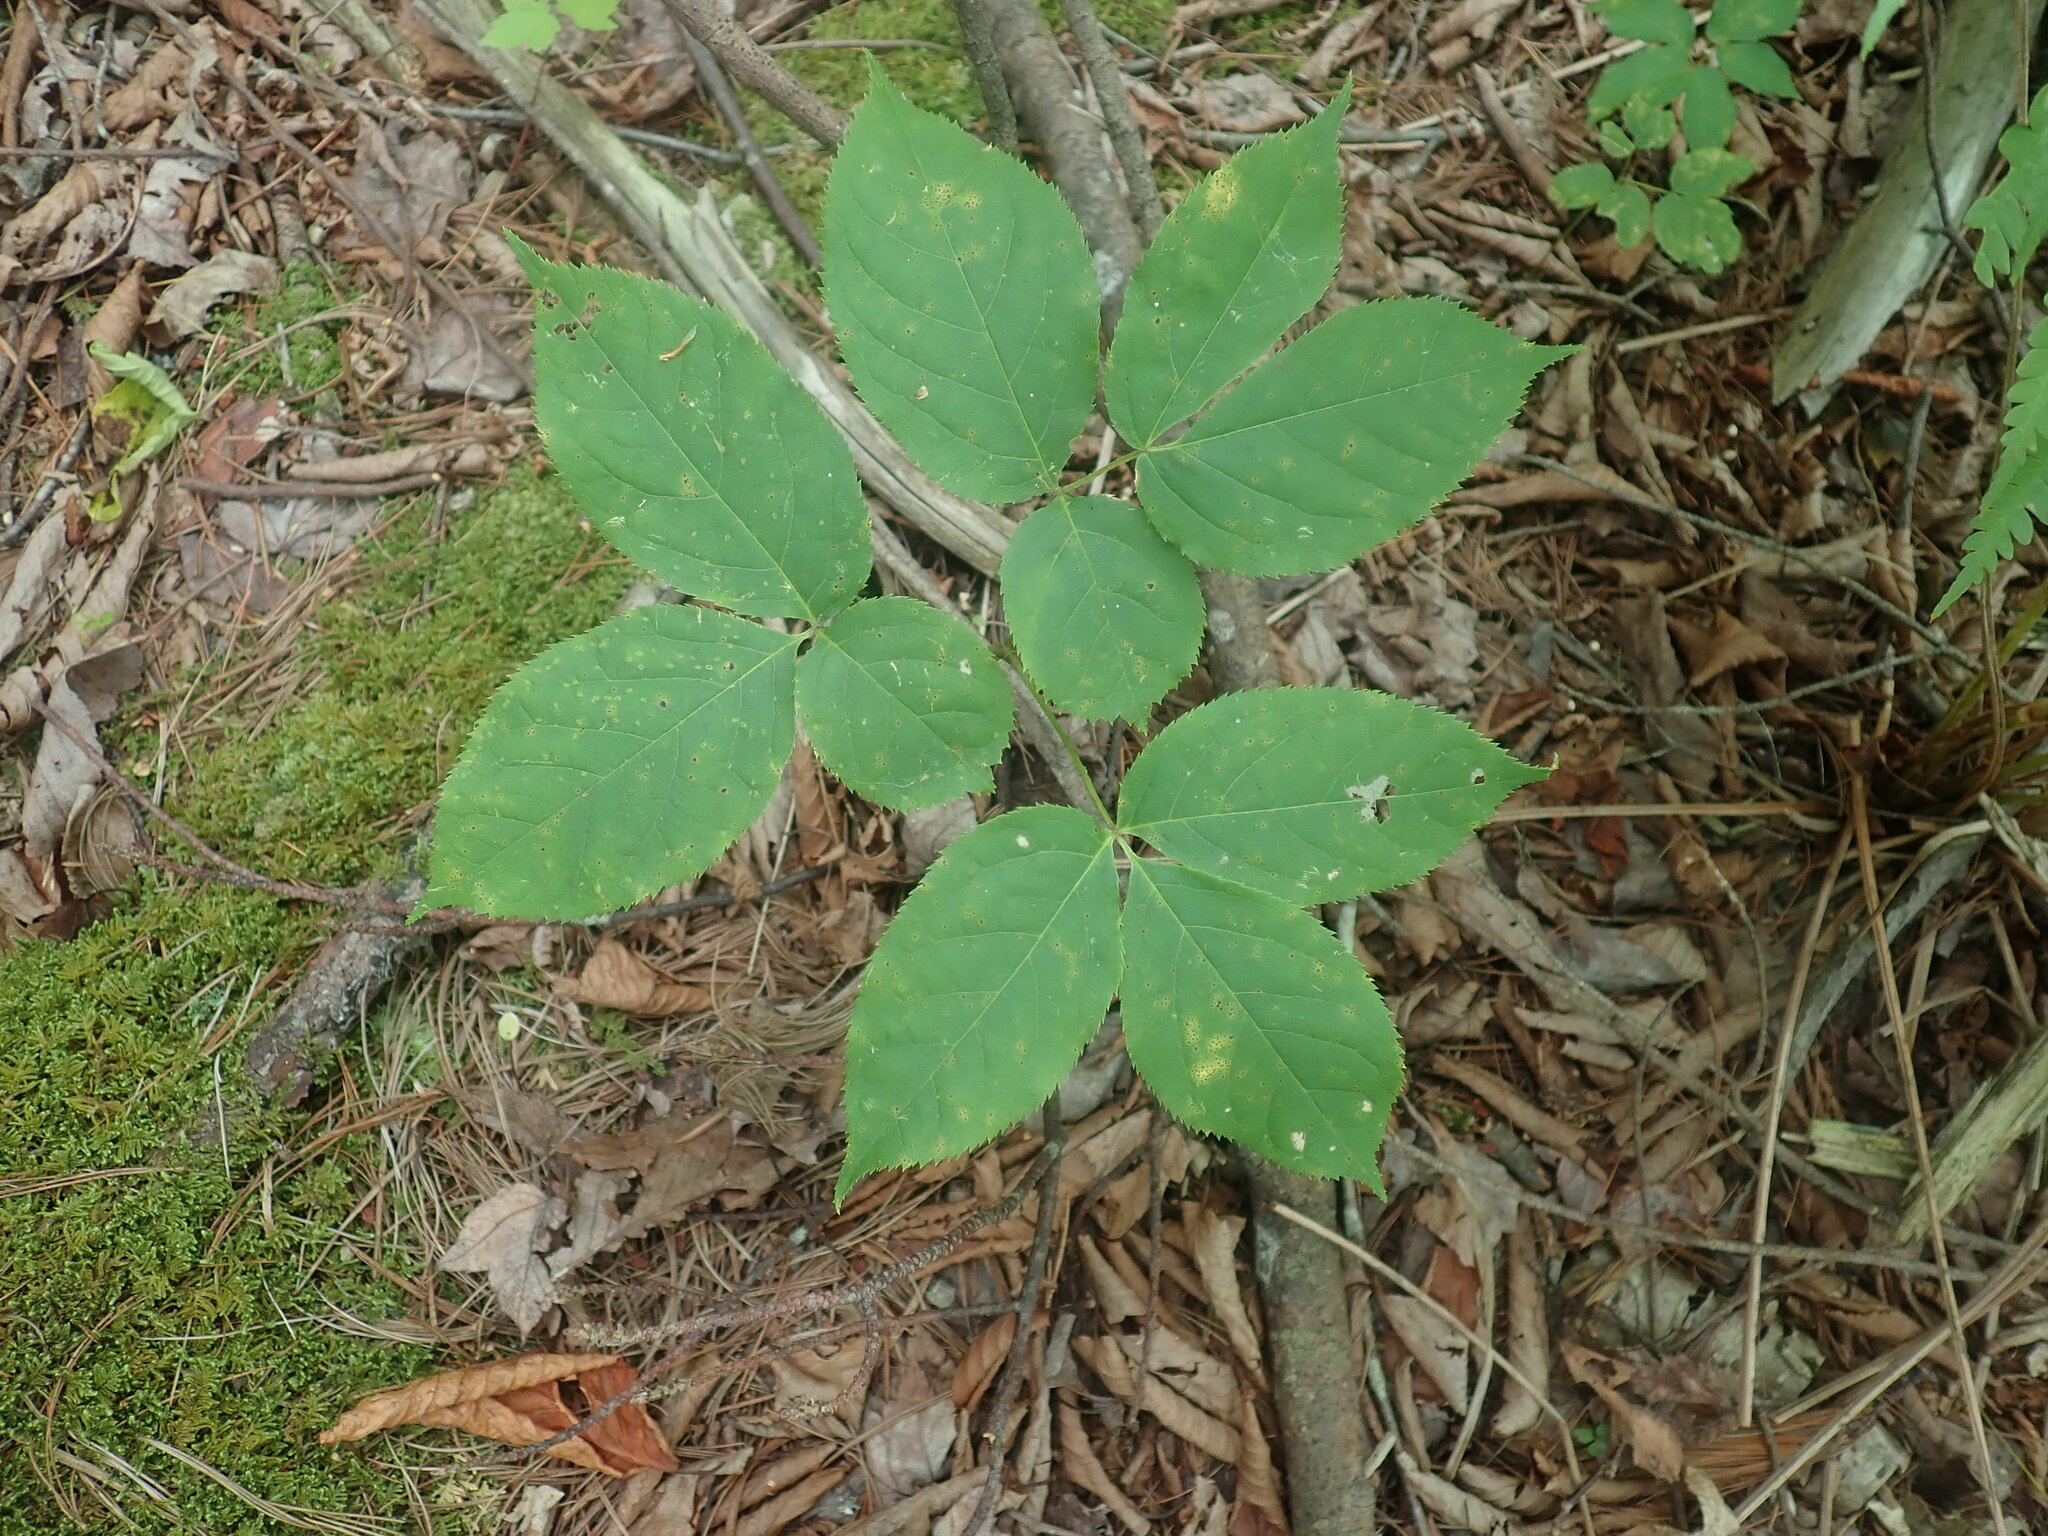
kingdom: Plantae
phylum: Tracheophyta
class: Magnoliopsida
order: Apiales
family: Araliaceae
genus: Aralia
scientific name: Aralia nudicaulis
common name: Wild sarsaparilla
